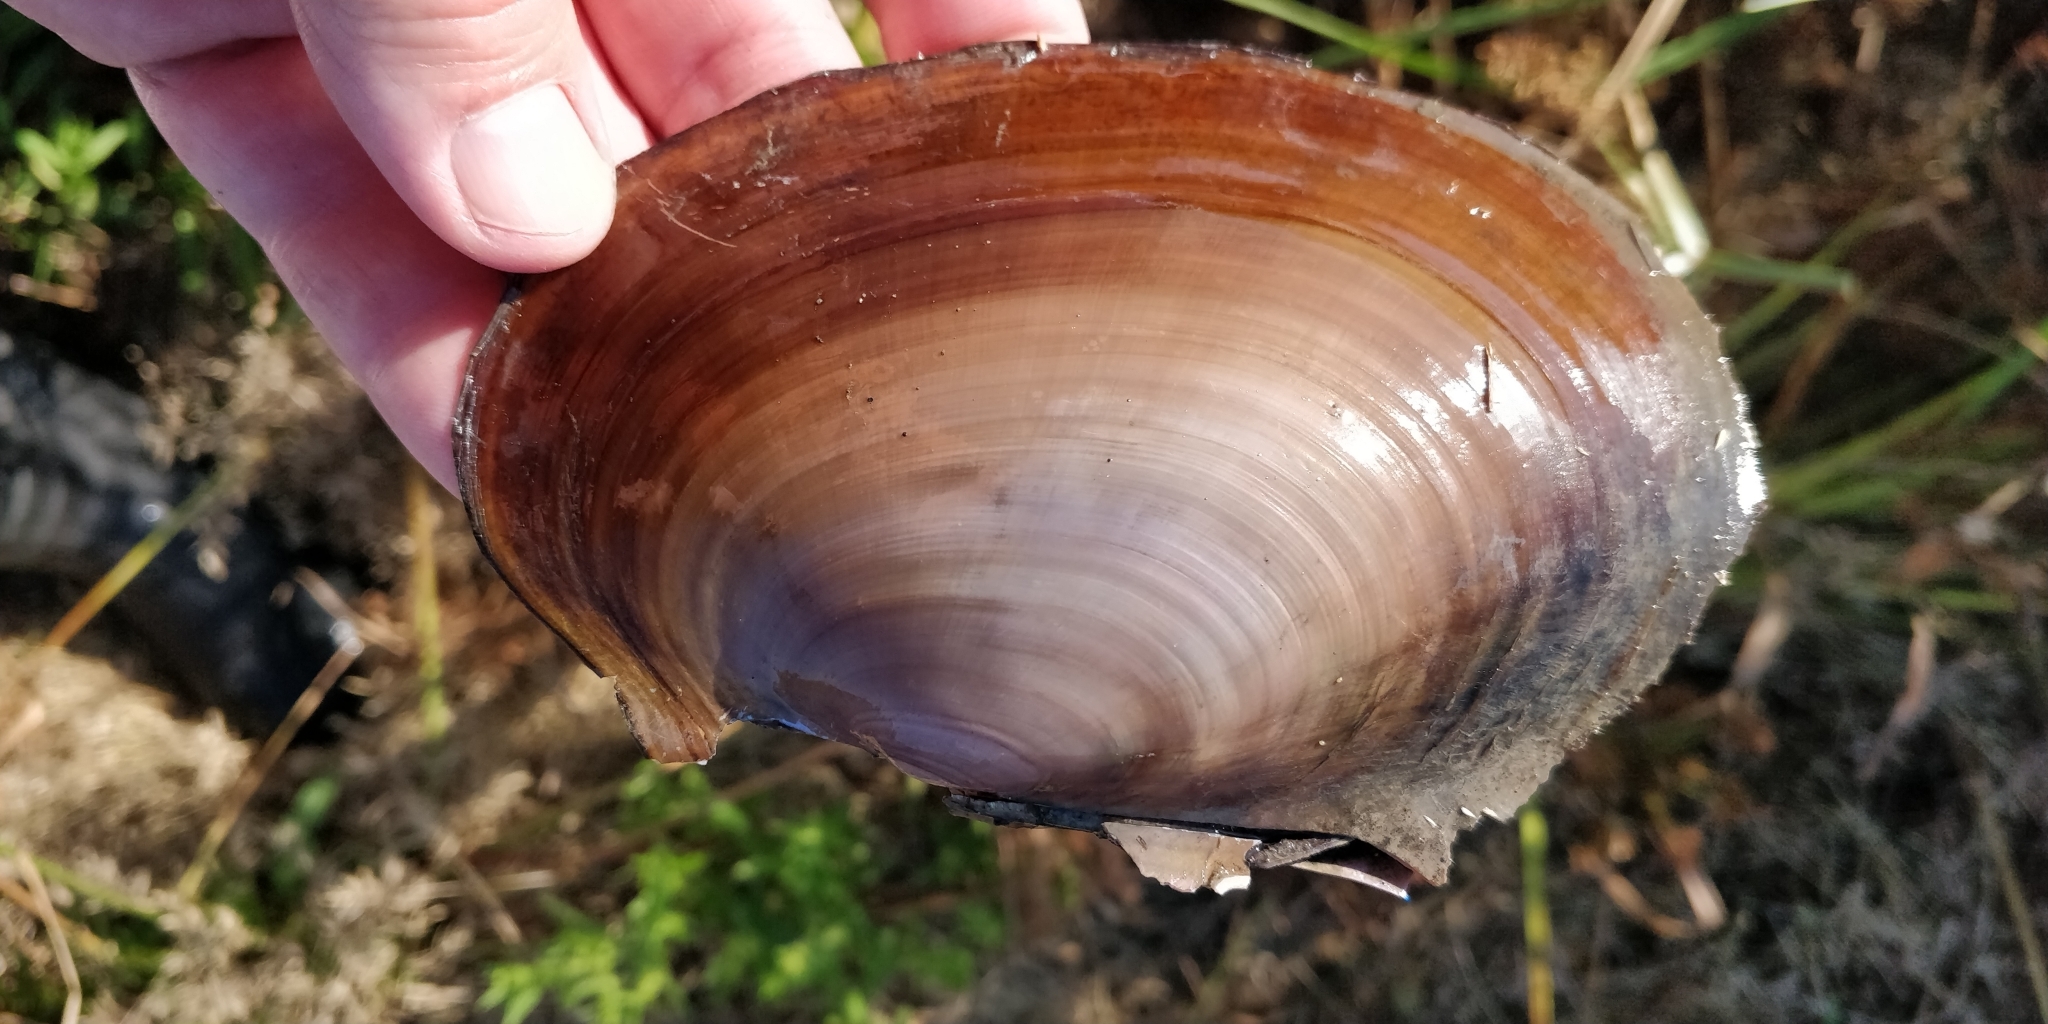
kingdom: Animalia
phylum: Mollusca
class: Bivalvia
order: Unionida
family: Unionidae
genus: Potamilus
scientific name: Potamilus ohiensis
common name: Pink papershell
